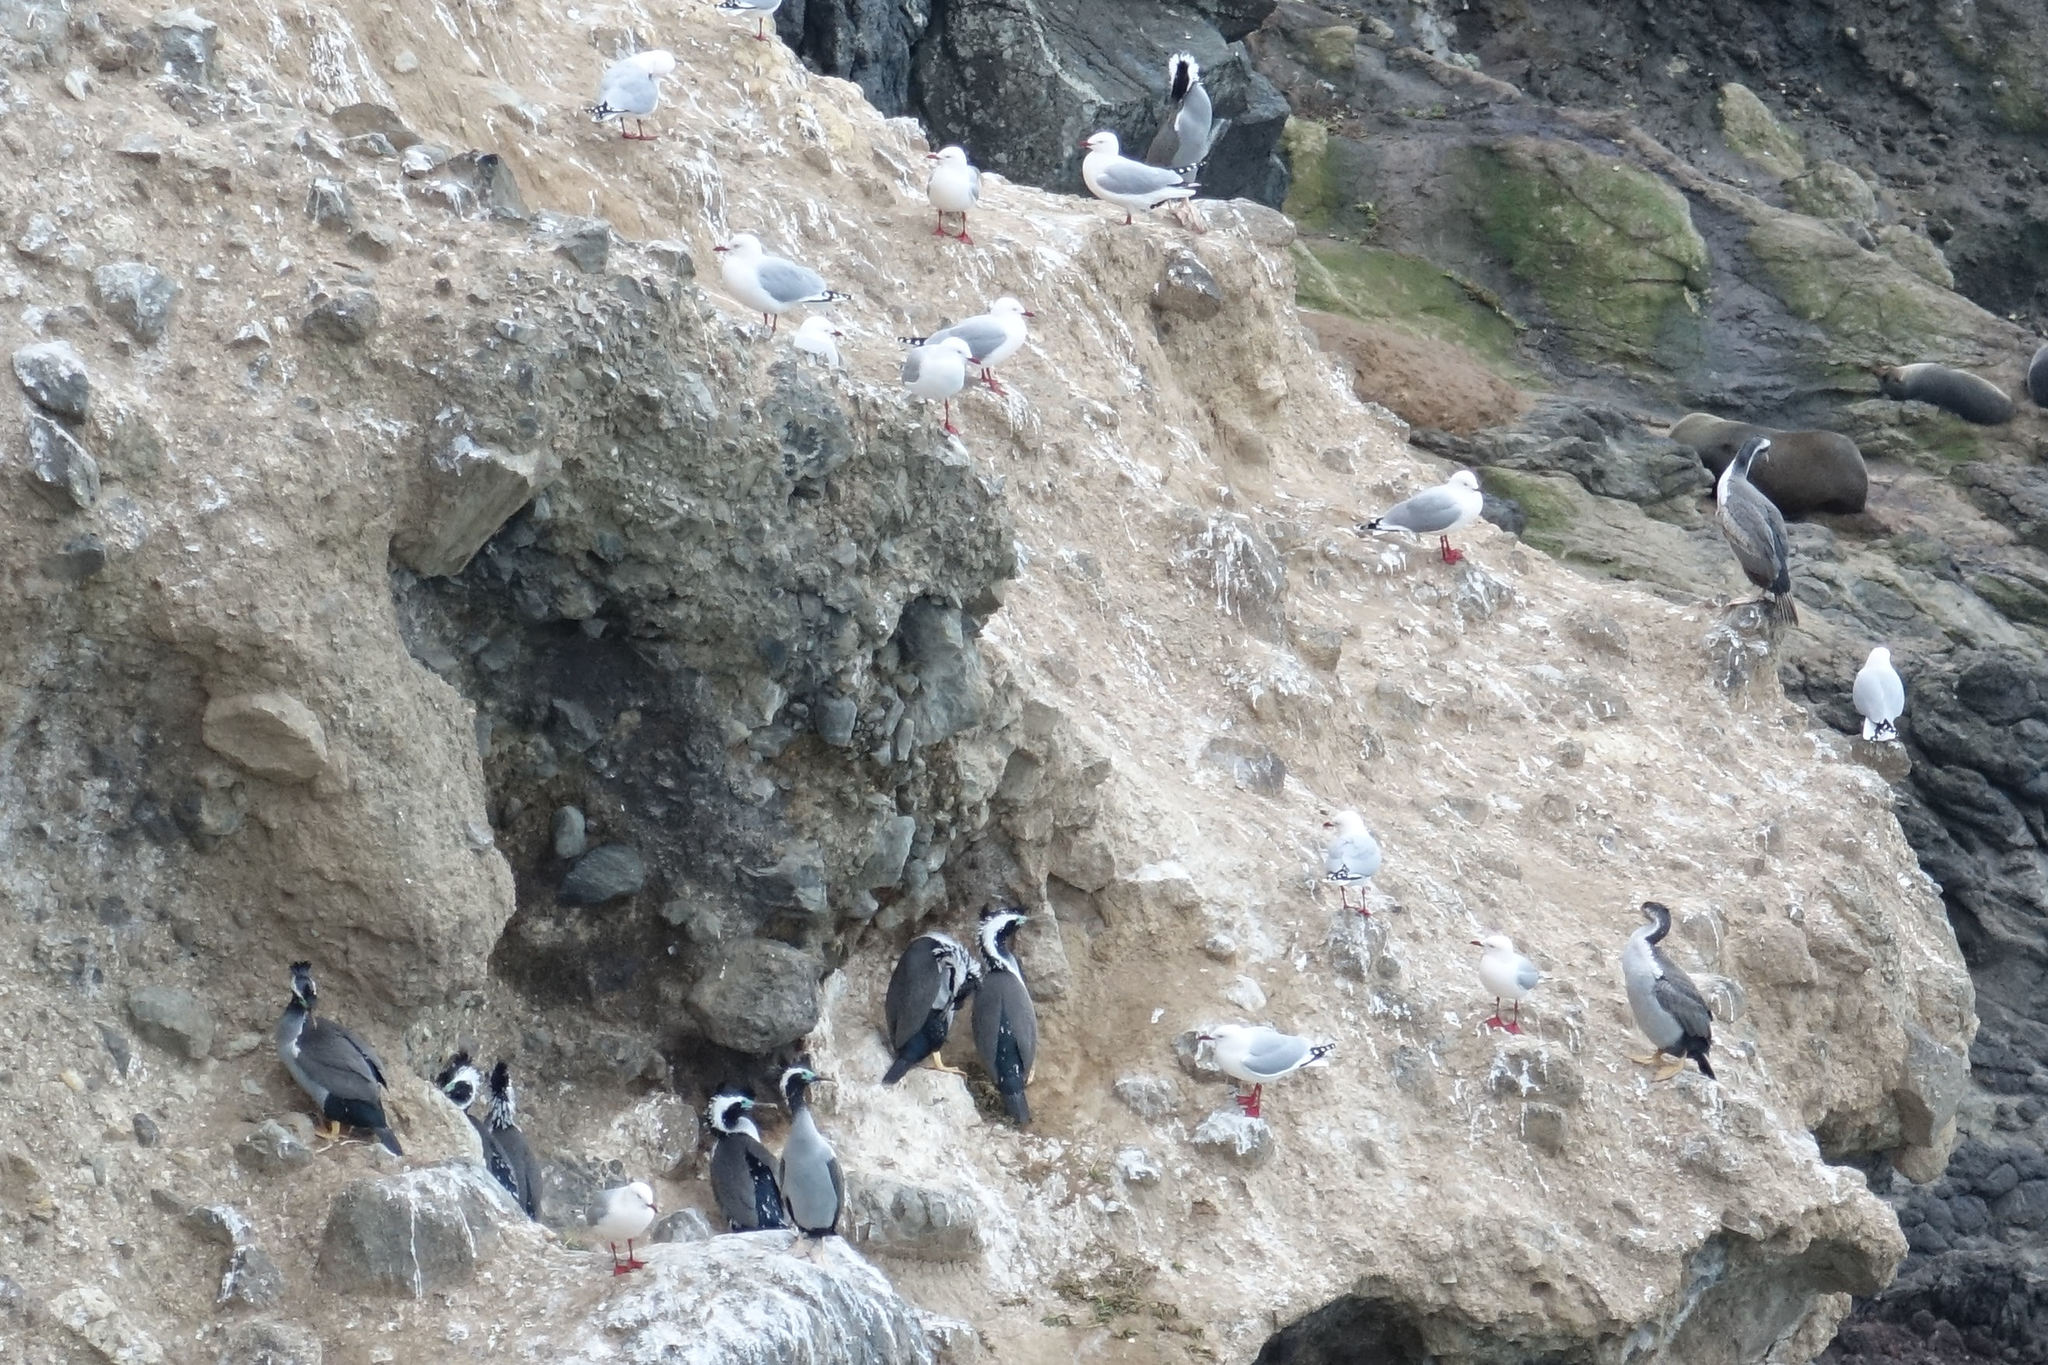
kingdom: Animalia
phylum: Chordata
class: Aves
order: Suliformes
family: Phalacrocoracidae
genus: Phalacrocorax
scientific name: Phalacrocorax punctatus
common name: Spotted shag
